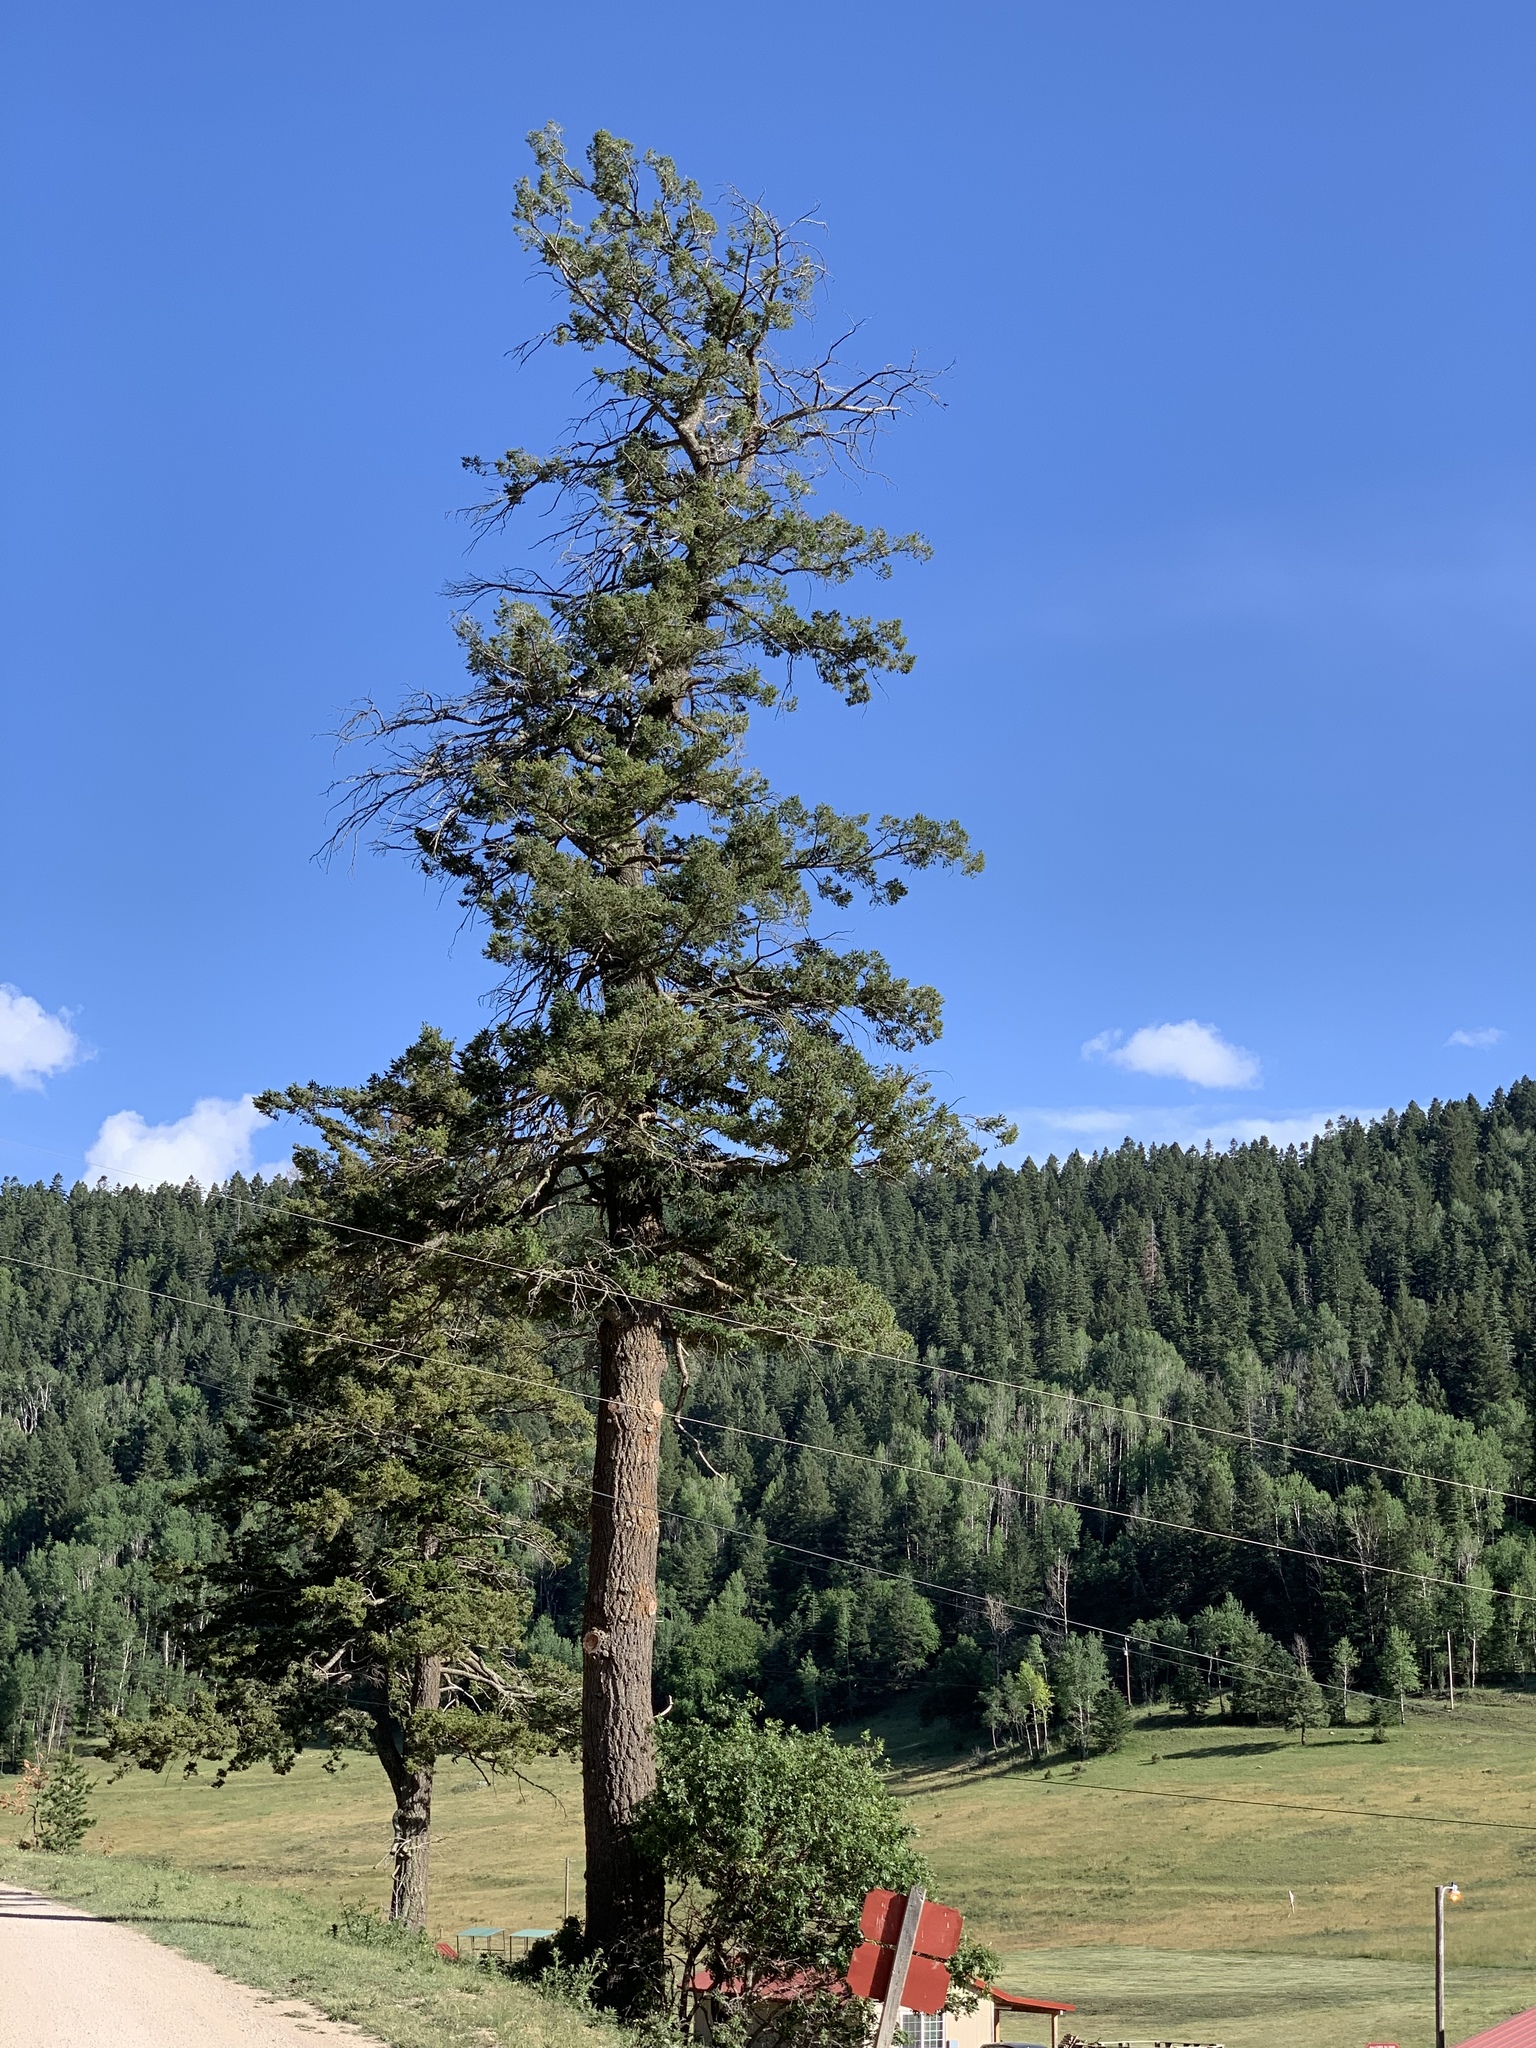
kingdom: Plantae
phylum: Tracheophyta
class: Pinopsida
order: Pinales
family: Pinaceae
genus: Pseudotsuga
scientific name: Pseudotsuga menziesii
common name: Douglas fir
